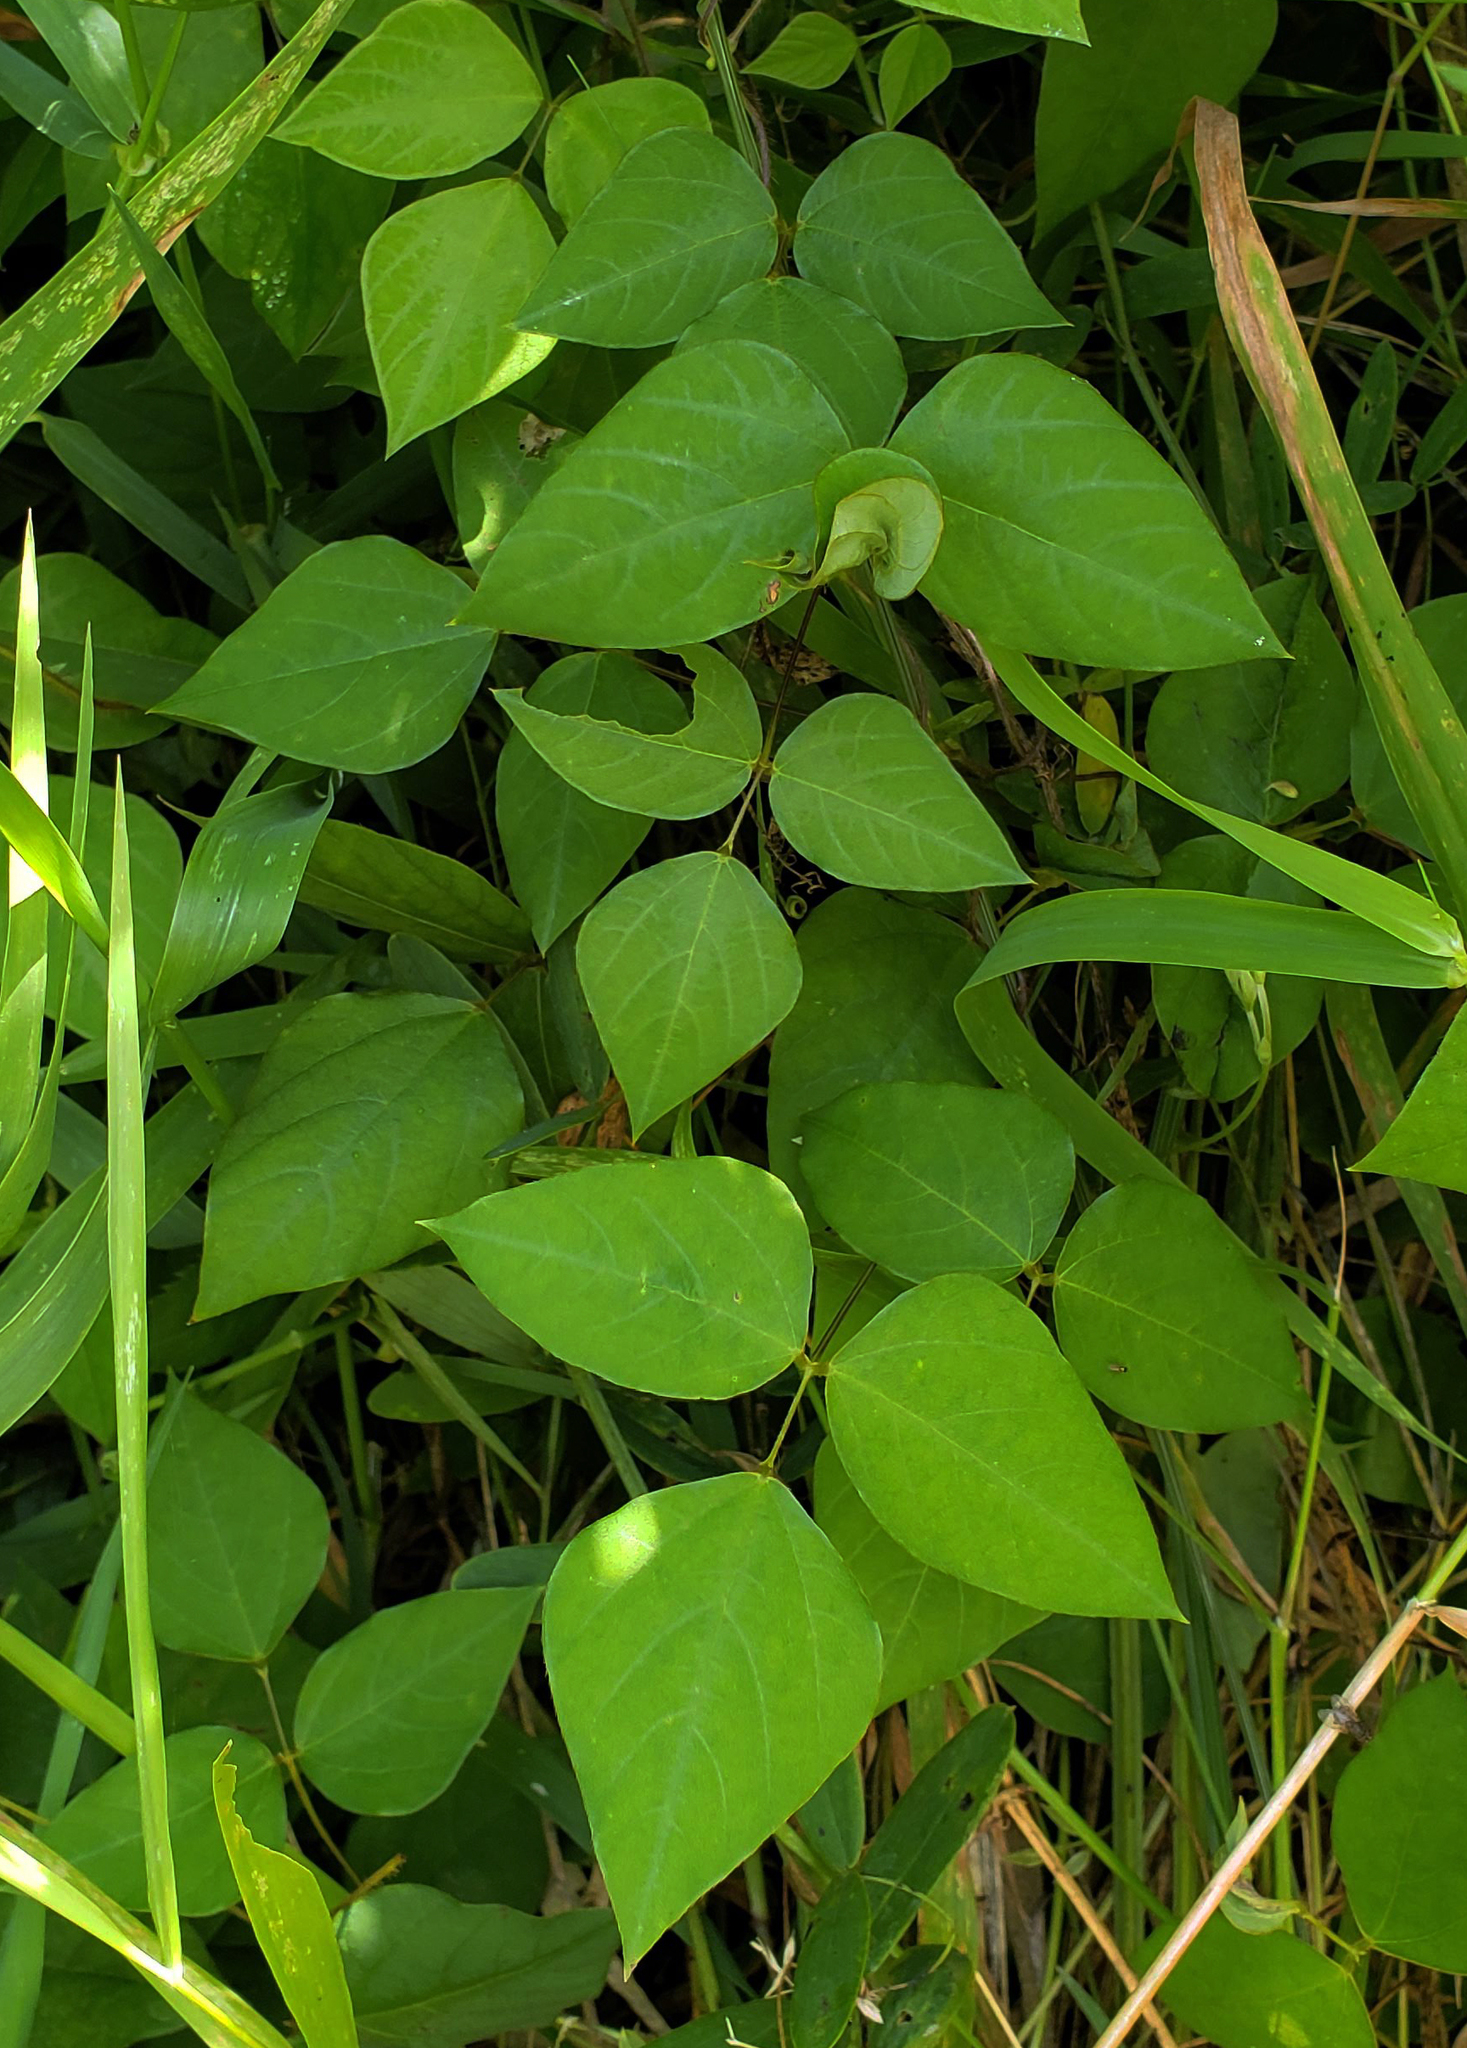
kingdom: Plantae
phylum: Tracheophyta
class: Magnoliopsida
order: Fabales
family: Fabaceae
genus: Amphicarpaea
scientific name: Amphicarpaea bracteata
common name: American hog peanut
